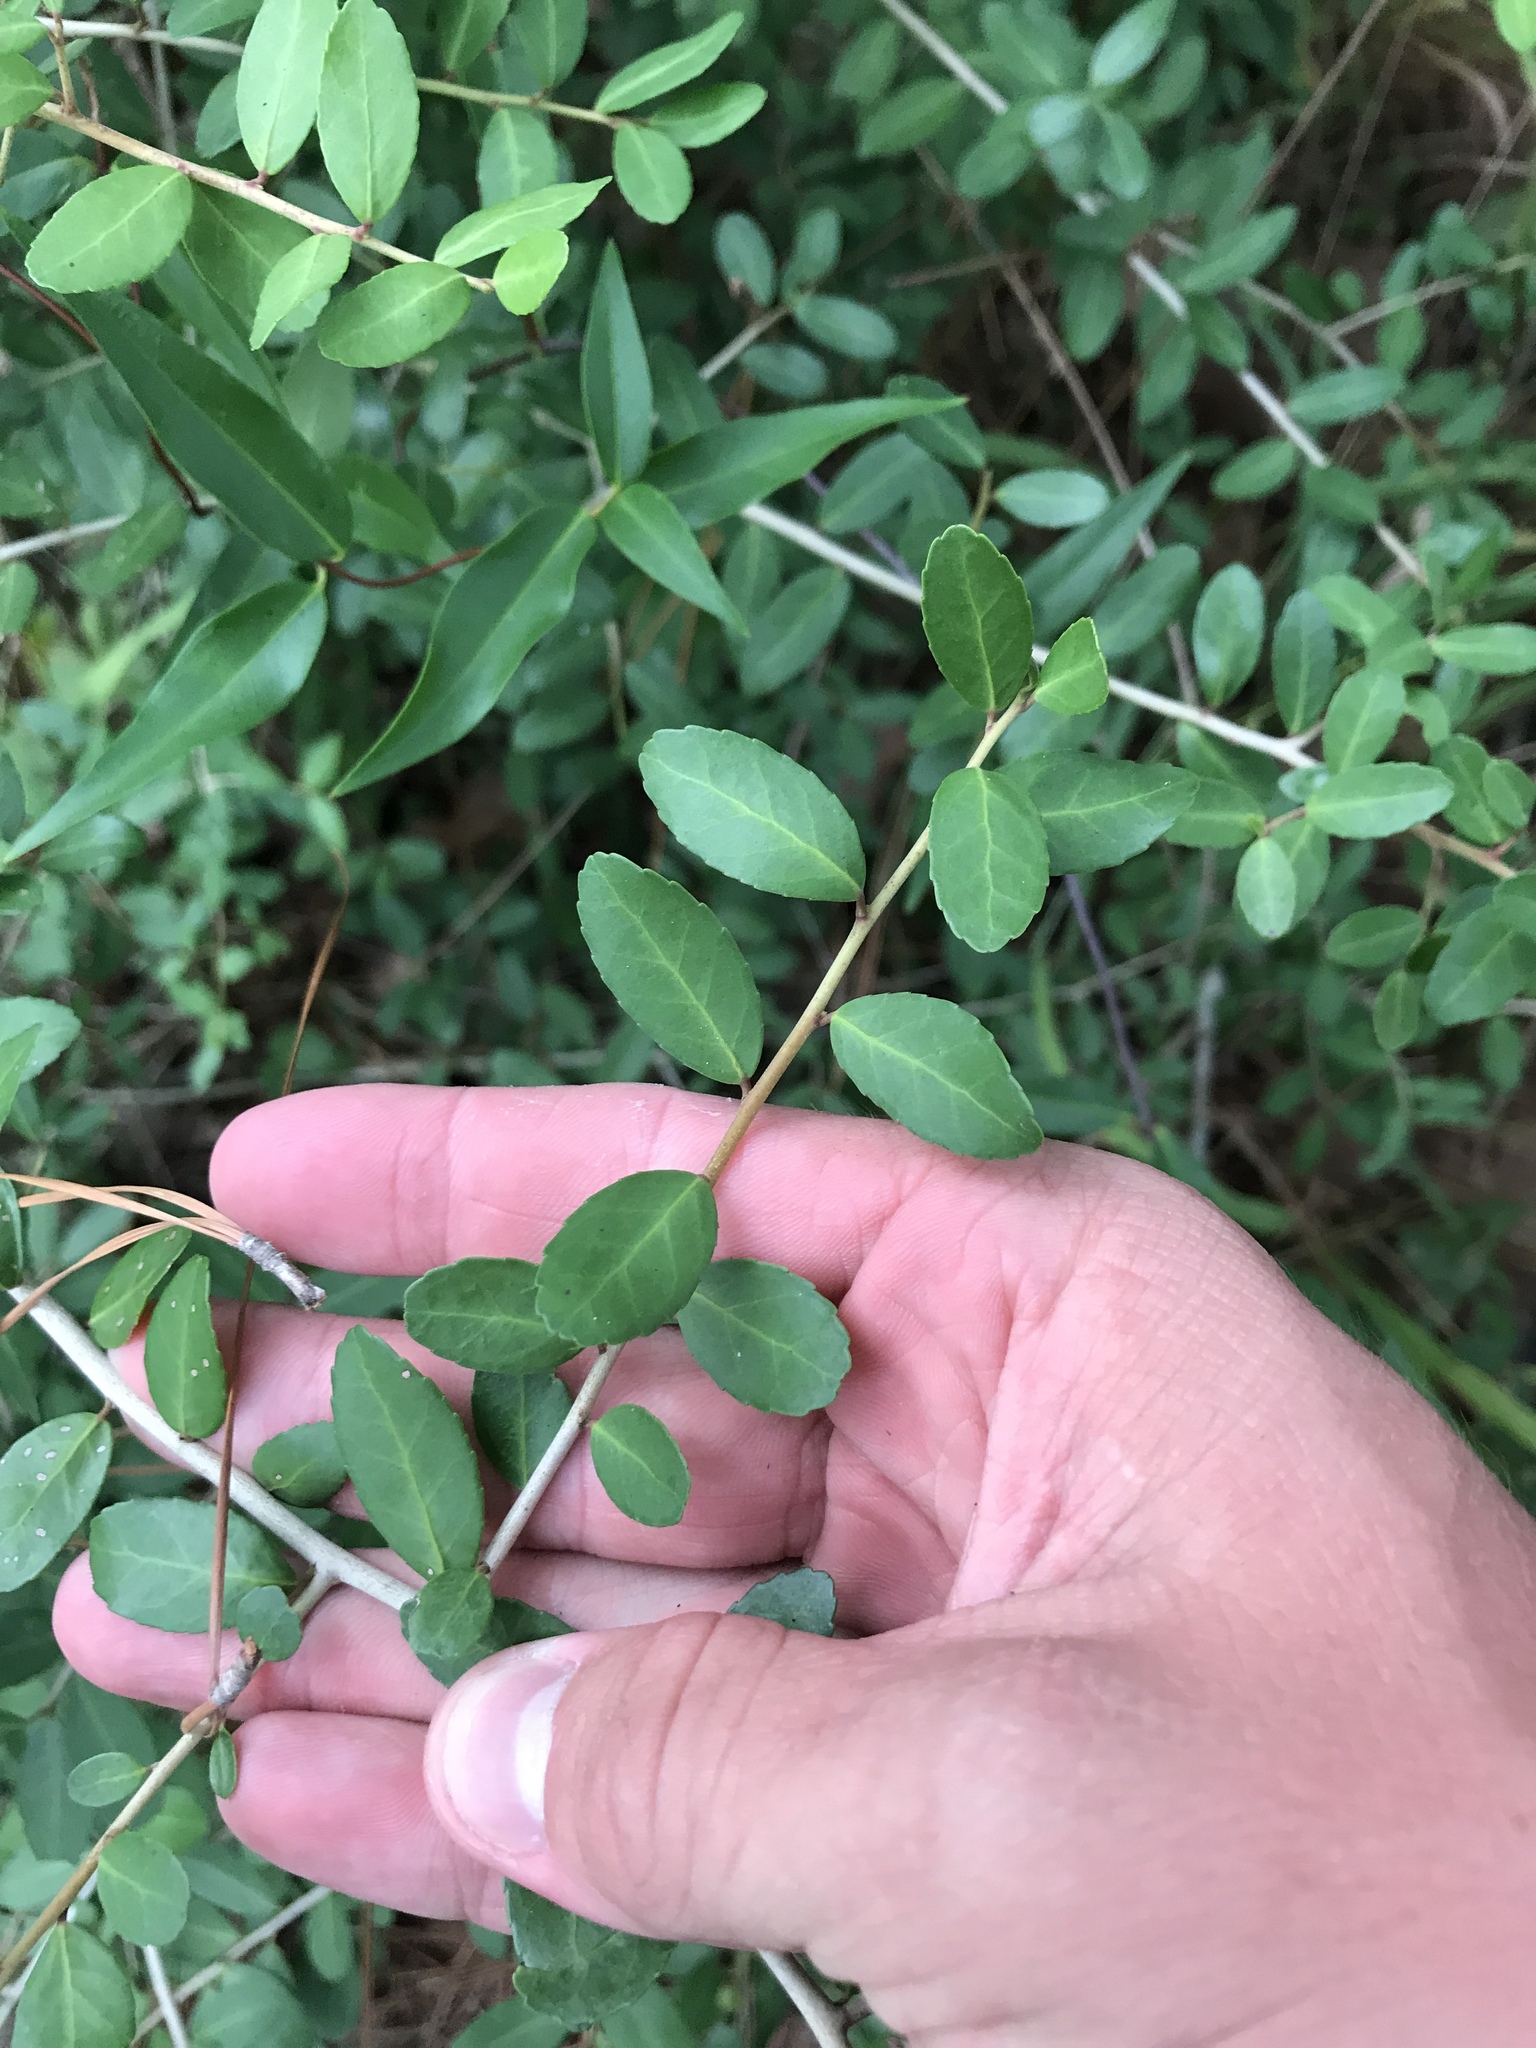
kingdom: Plantae
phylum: Tracheophyta
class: Magnoliopsida
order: Aquifoliales
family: Aquifoliaceae
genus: Ilex
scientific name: Ilex vomitoria
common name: Yaupon holly
